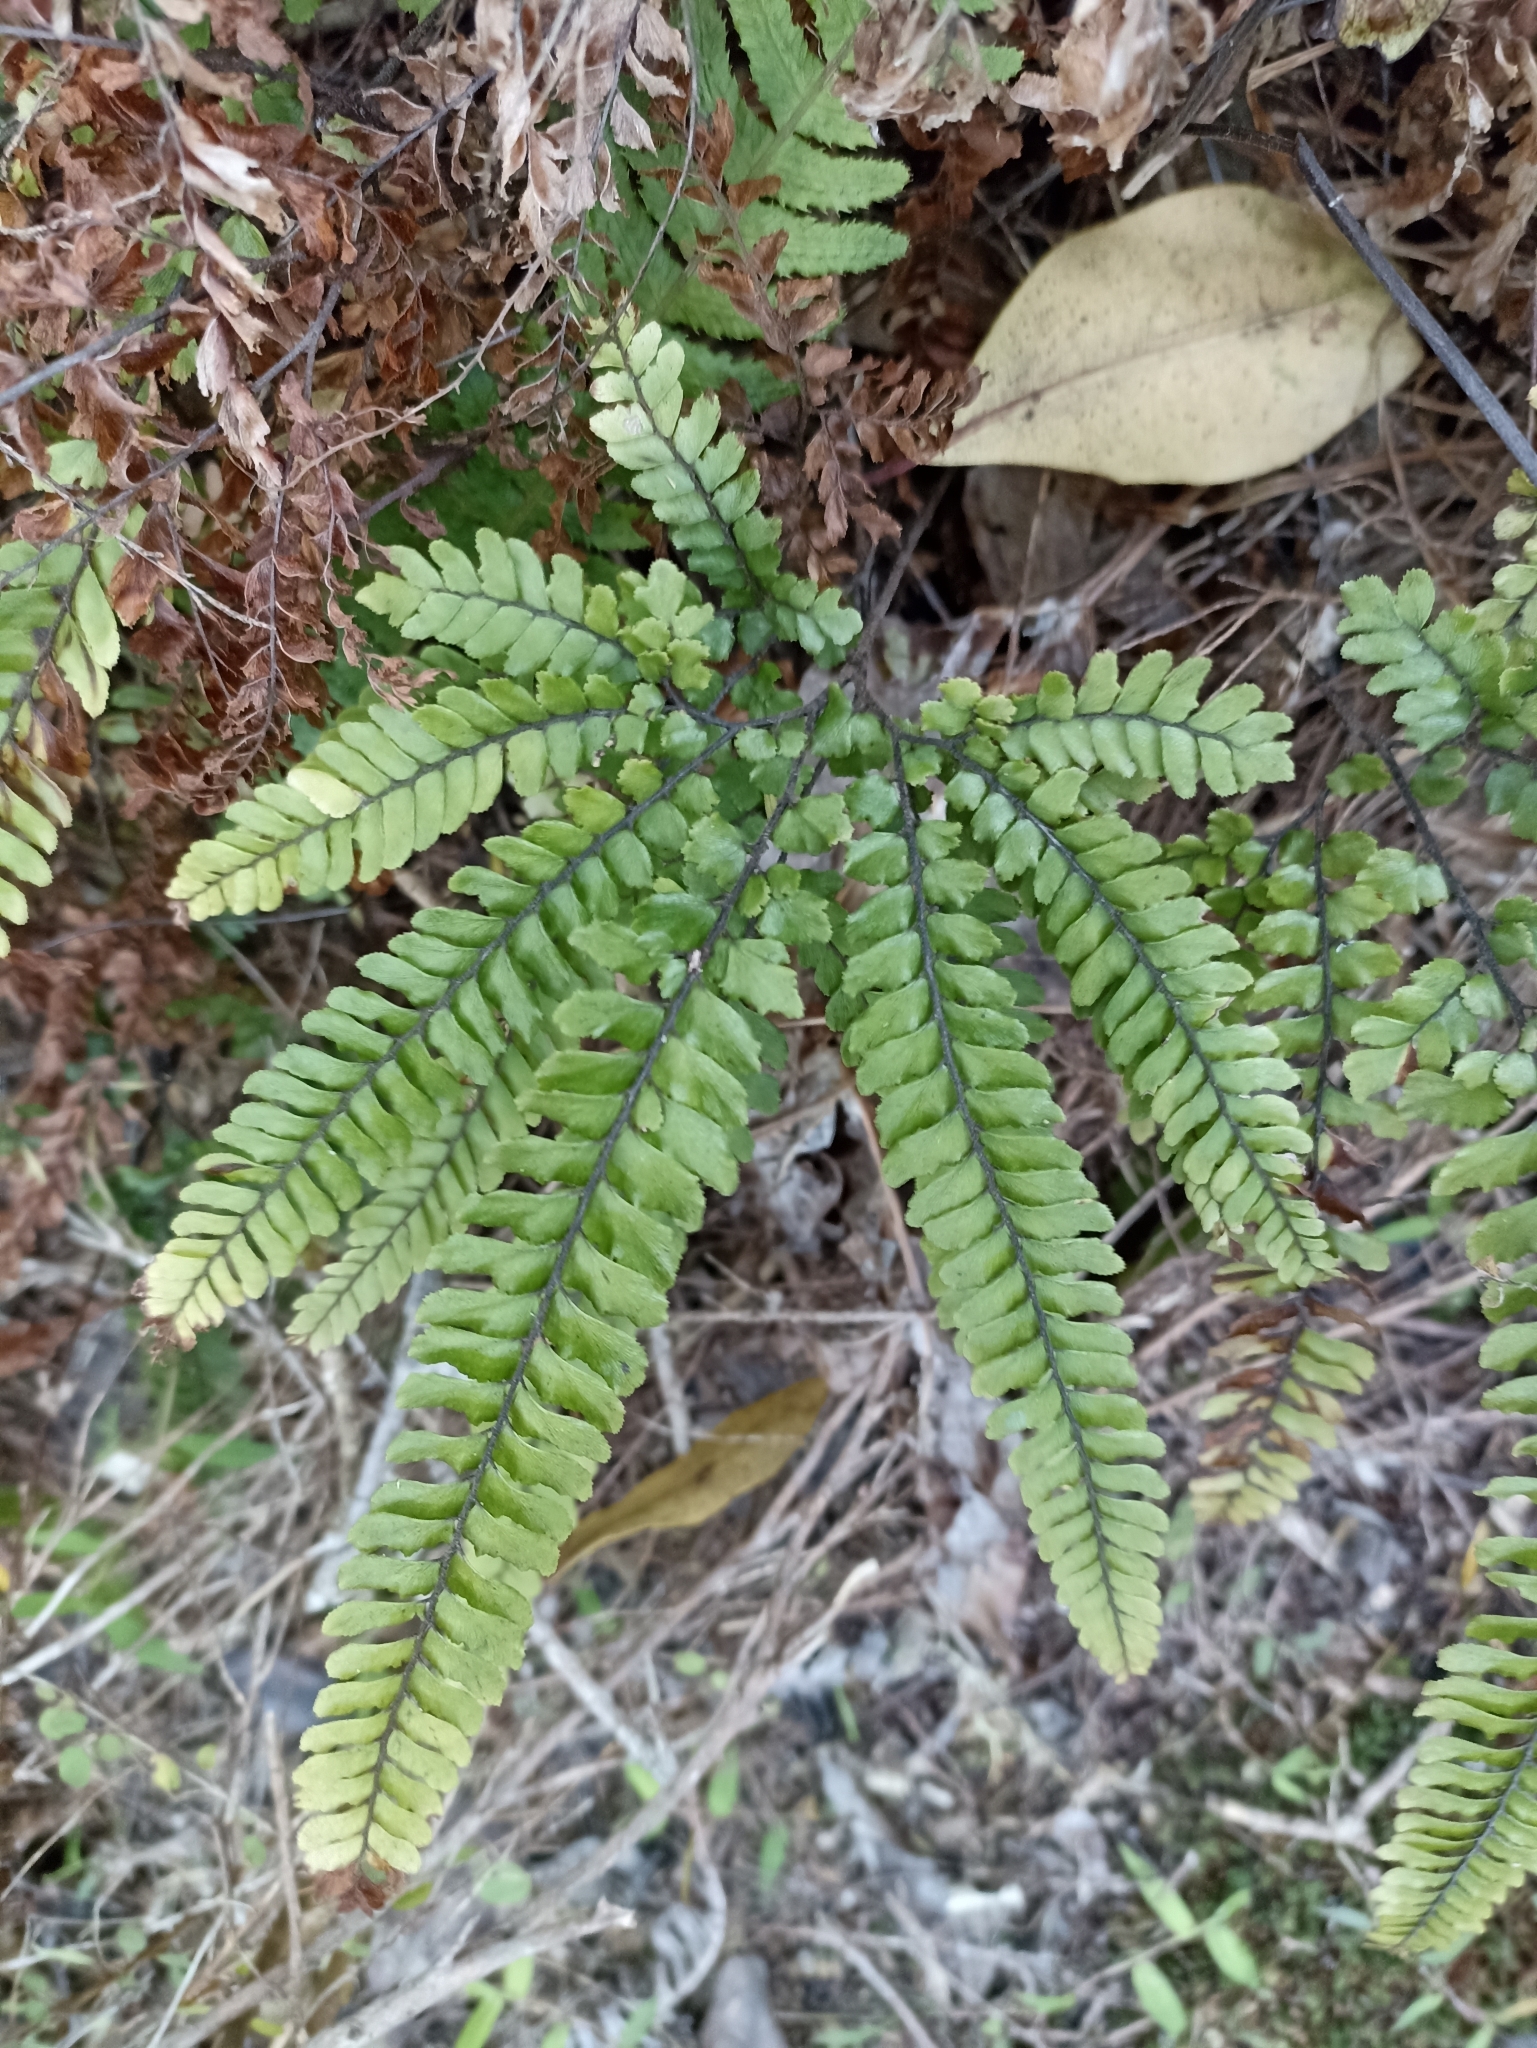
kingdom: Plantae
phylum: Tracheophyta
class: Polypodiopsida
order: Polypodiales
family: Pteridaceae
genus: Adiantum
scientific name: Adiantum hispidulum
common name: Rough maidenhair
